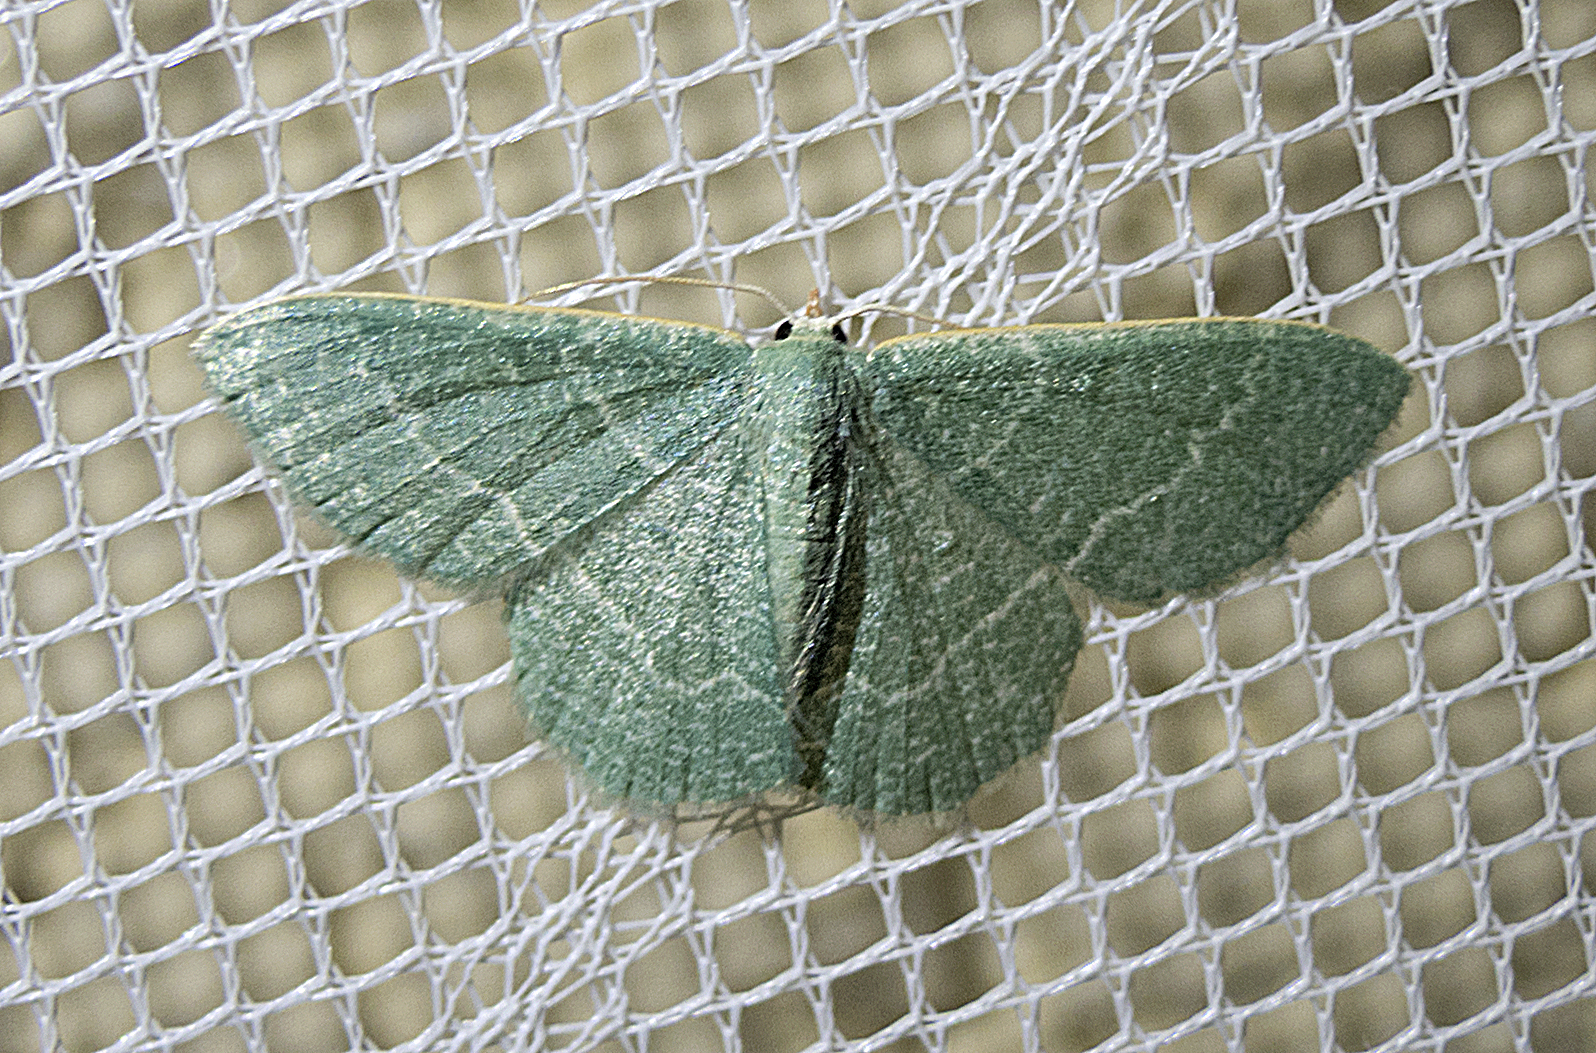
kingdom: Animalia
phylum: Arthropoda
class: Insecta
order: Lepidoptera
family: Geometridae
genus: Chlorissa
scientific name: Chlorissa etruscaria
